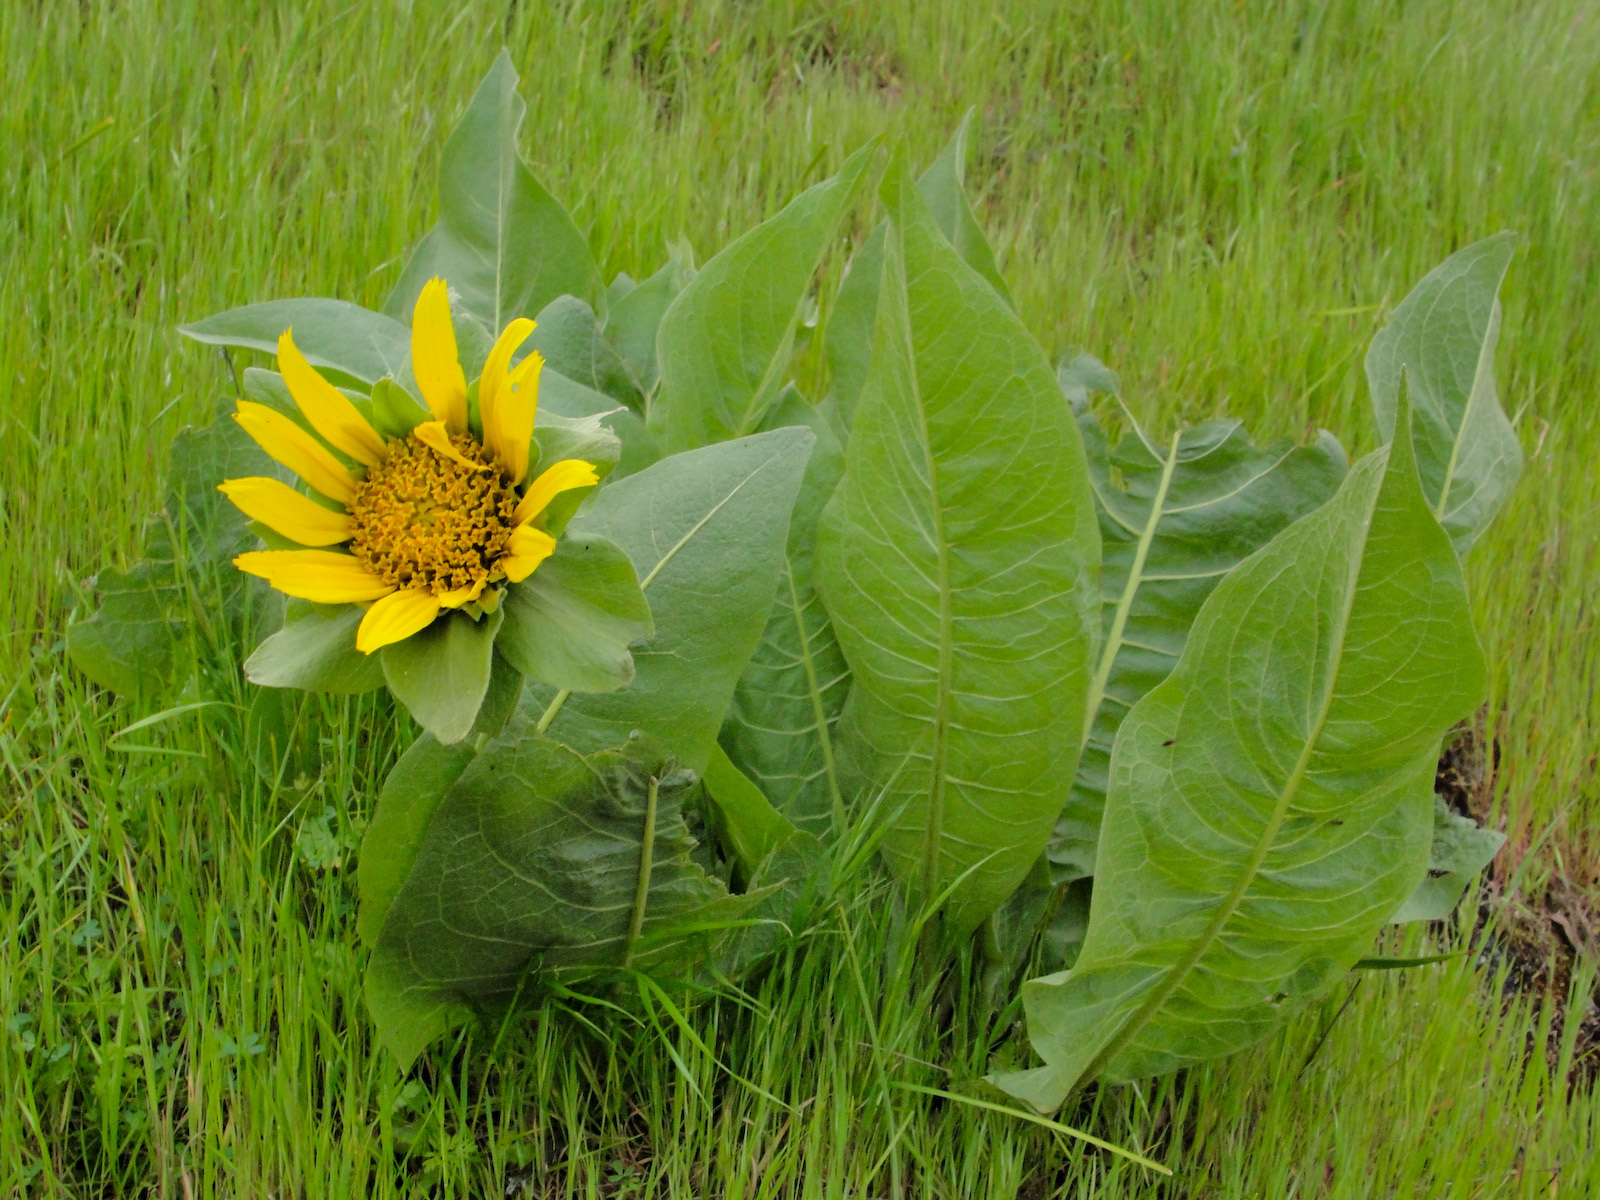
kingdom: Plantae
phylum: Tracheophyta
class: Magnoliopsida
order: Asterales
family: Asteraceae
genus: Wyethia
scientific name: Wyethia glabra
